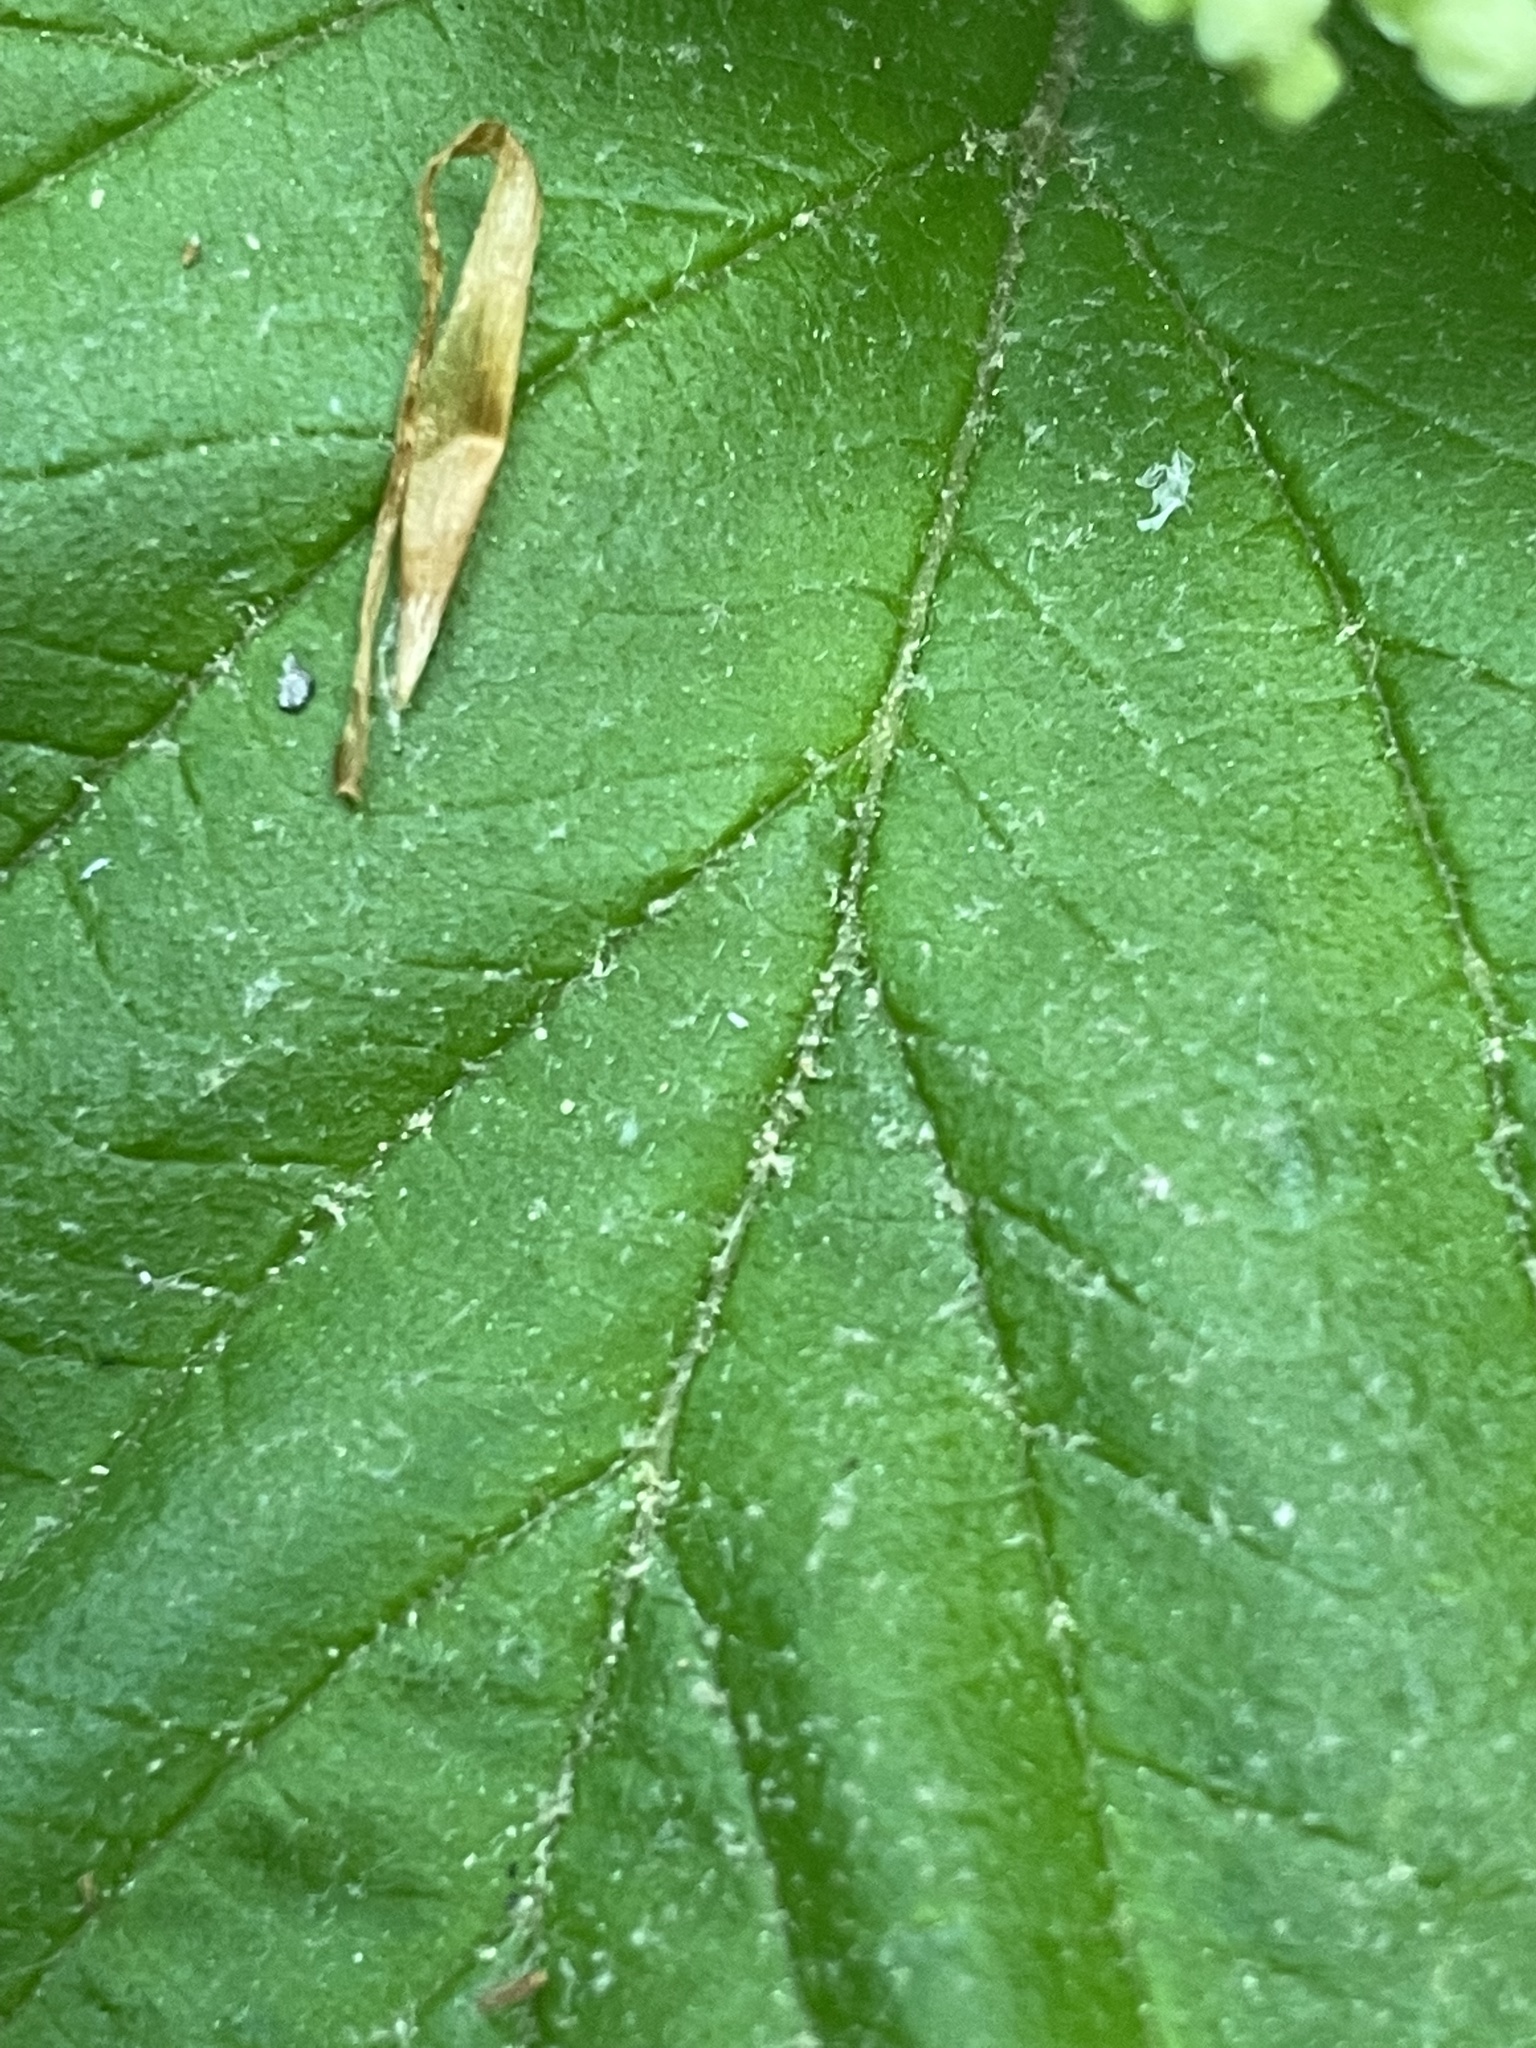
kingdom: Plantae
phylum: Tracheophyta
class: Magnoliopsida
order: Dipsacales
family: Viburnaceae
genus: Viburnum
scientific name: Viburnum dilatatum
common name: Linden arrowwood
